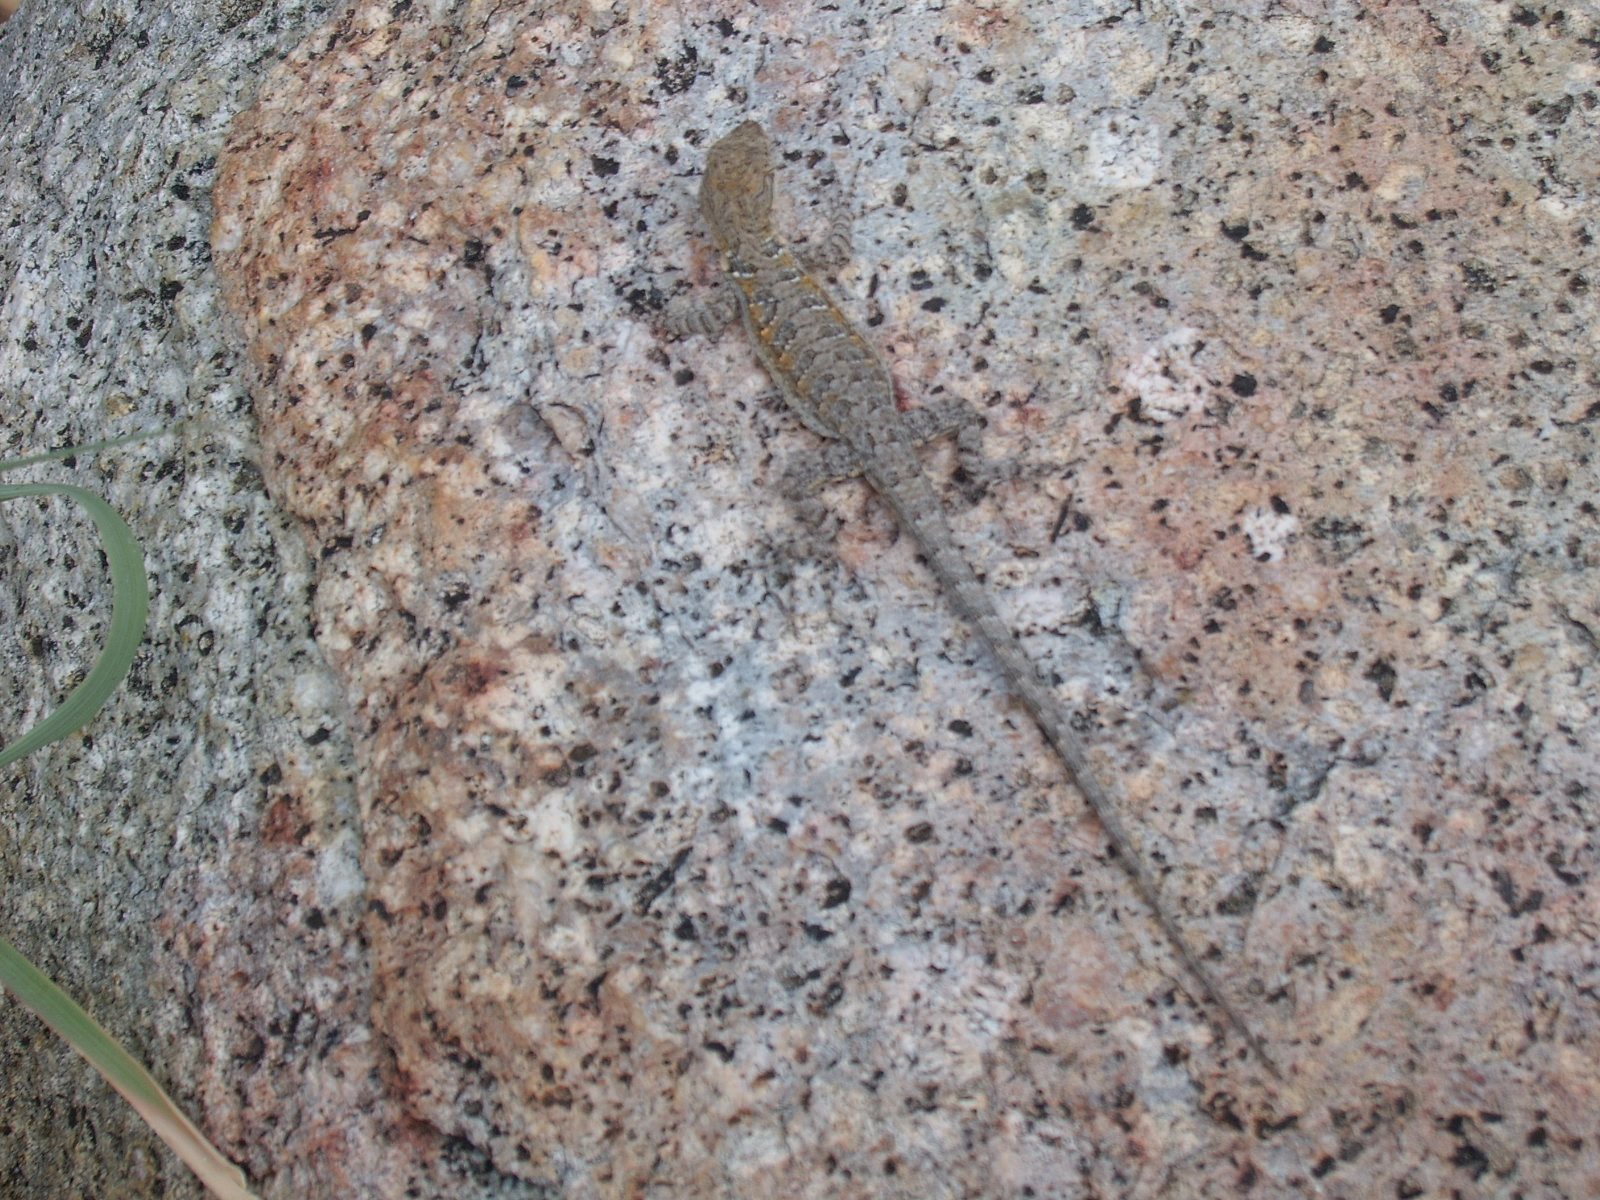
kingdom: Animalia
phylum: Chordata
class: Squamata
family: Phrynosomatidae
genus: Urosaurus
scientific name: Urosaurus nigricauda
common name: Baja california brush lizard
